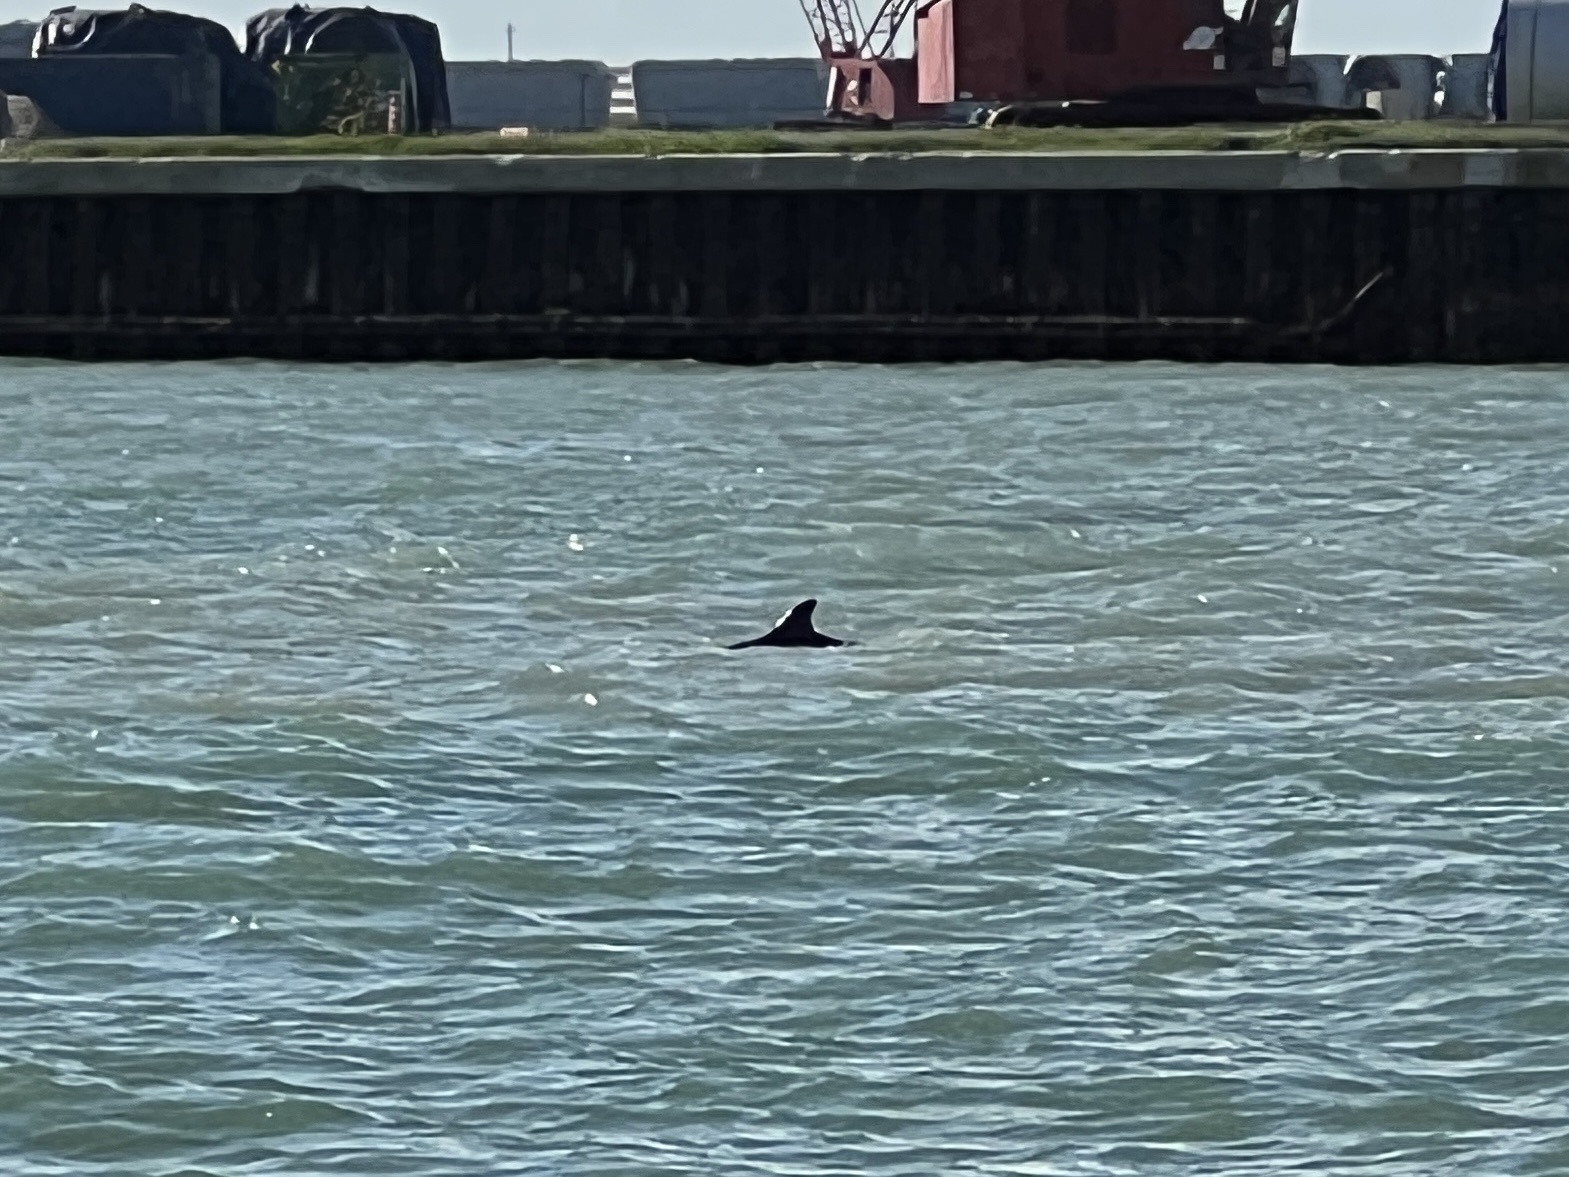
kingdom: Animalia
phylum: Chordata
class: Mammalia
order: Cetacea
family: Delphinidae
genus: Tursiops
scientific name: Tursiops truncatus
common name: Bottlenose dolphin
